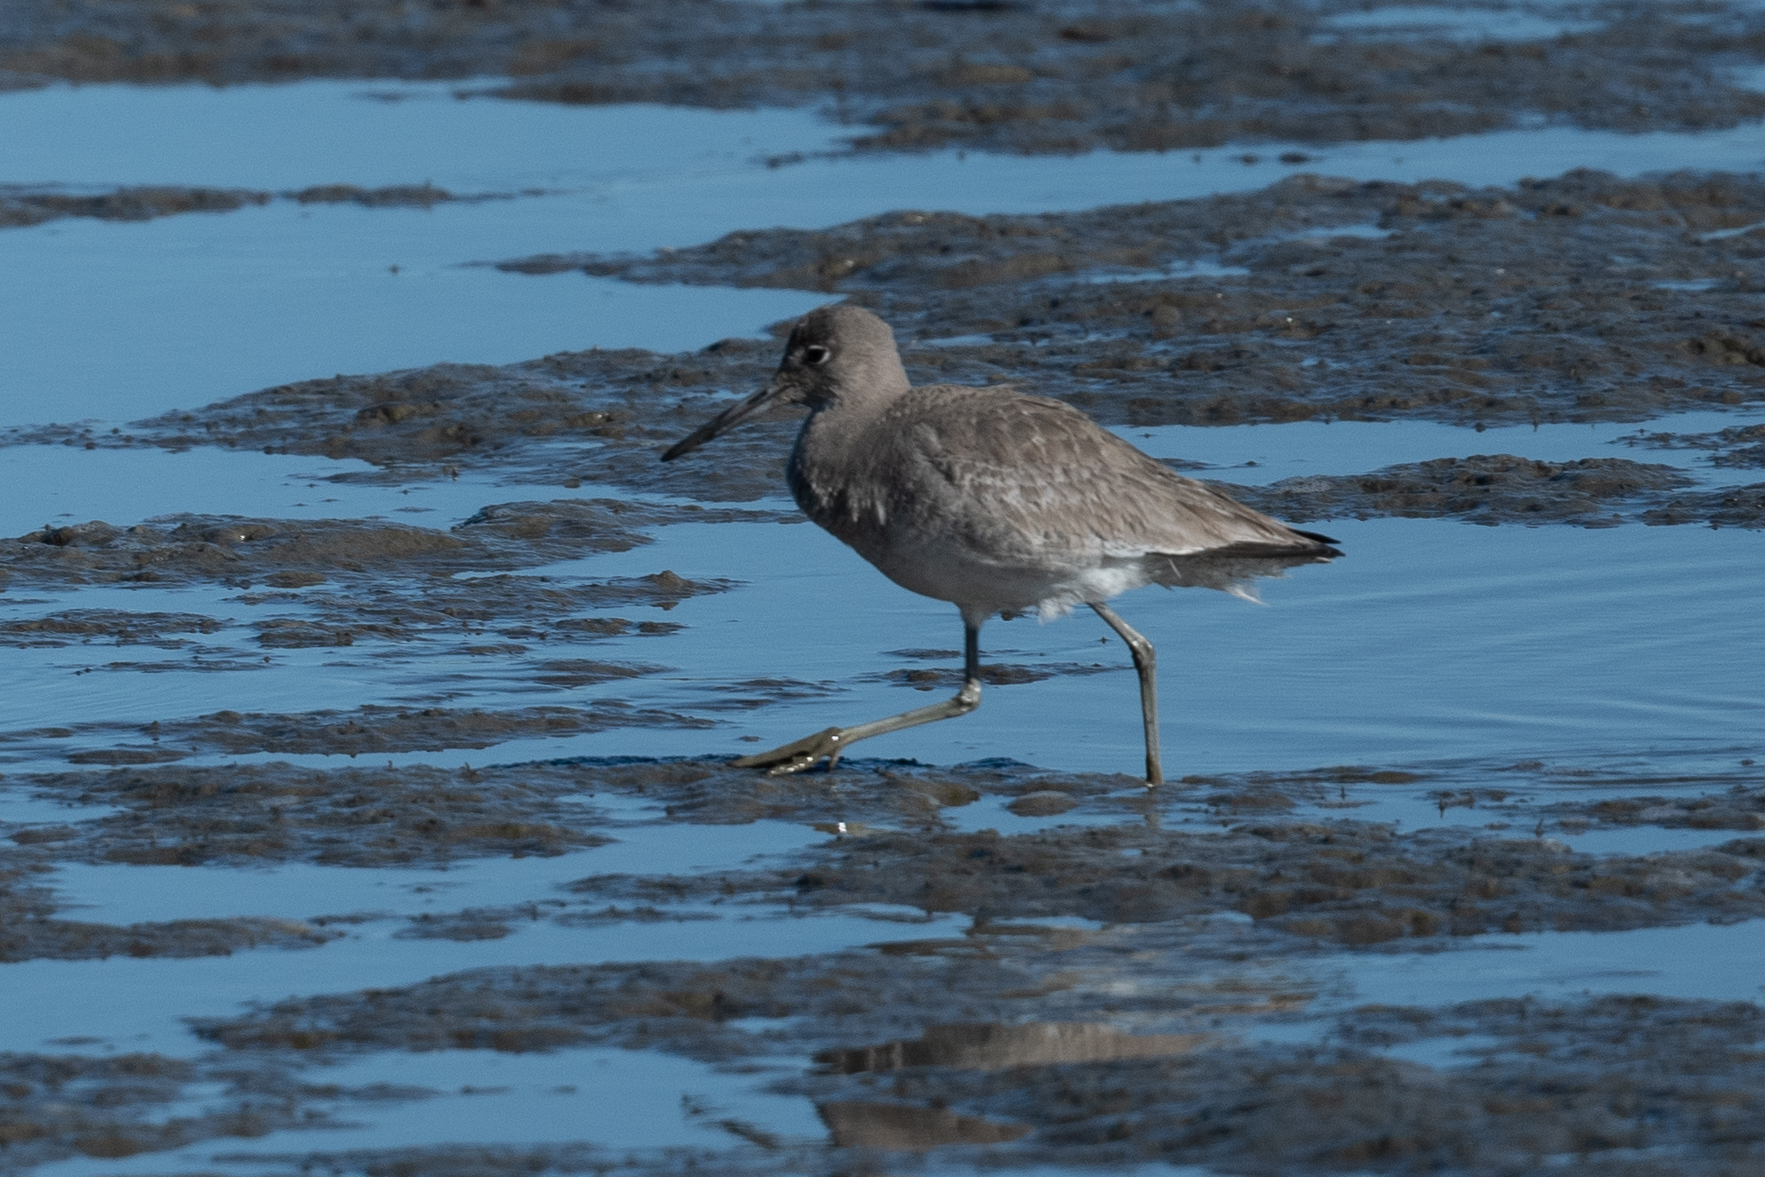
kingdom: Animalia
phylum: Chordata
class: Aves
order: Charadriiformes
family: Scolopacidae
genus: Tringa
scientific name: Tringa semipalmata
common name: Willet
